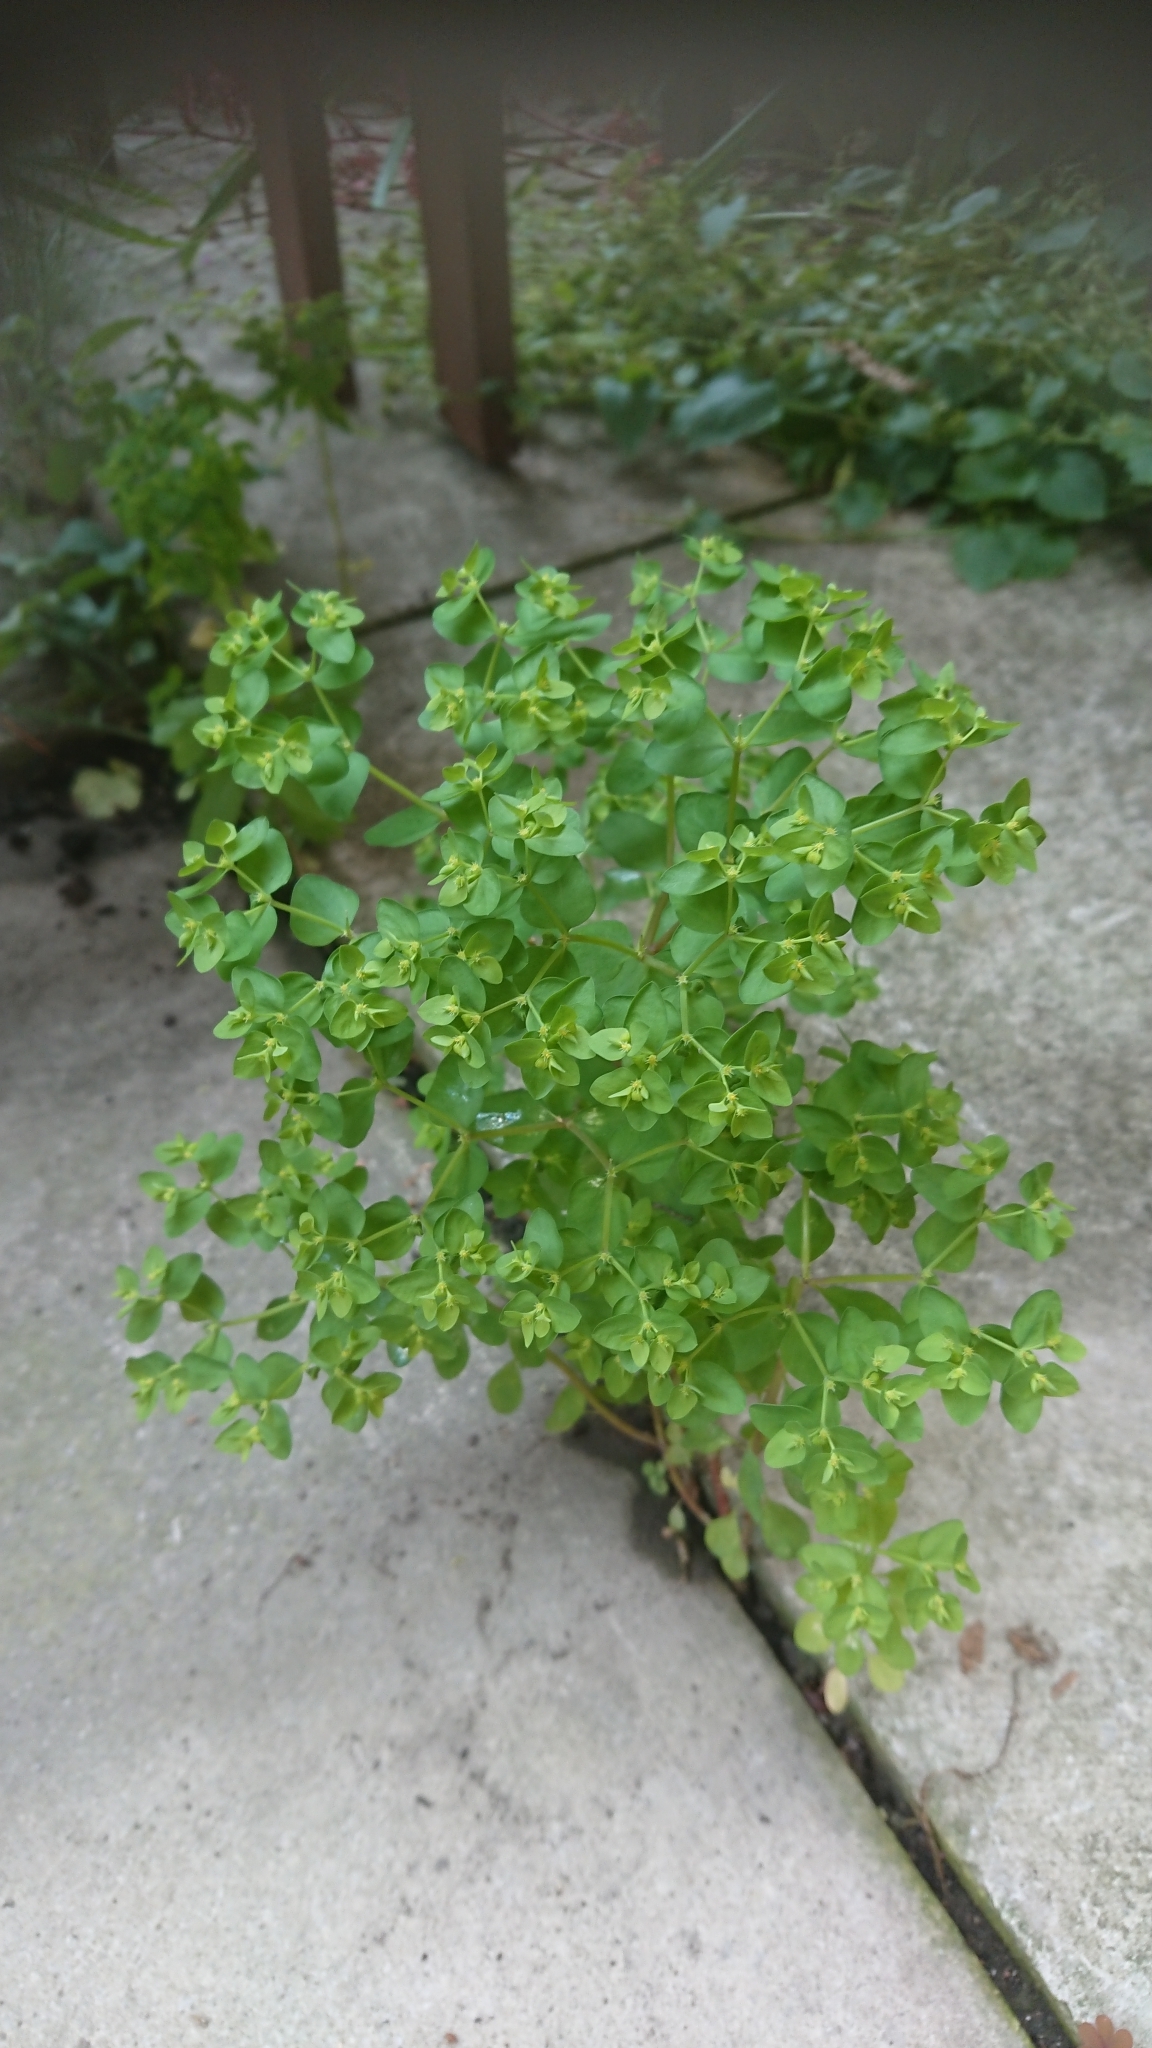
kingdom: Plantae
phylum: Tracheophyta
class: Magnoliopsida
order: Malpighiales
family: Euphorbiaceae
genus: Euphorbia
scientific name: Euphorbia peplus
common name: Petty spurge
